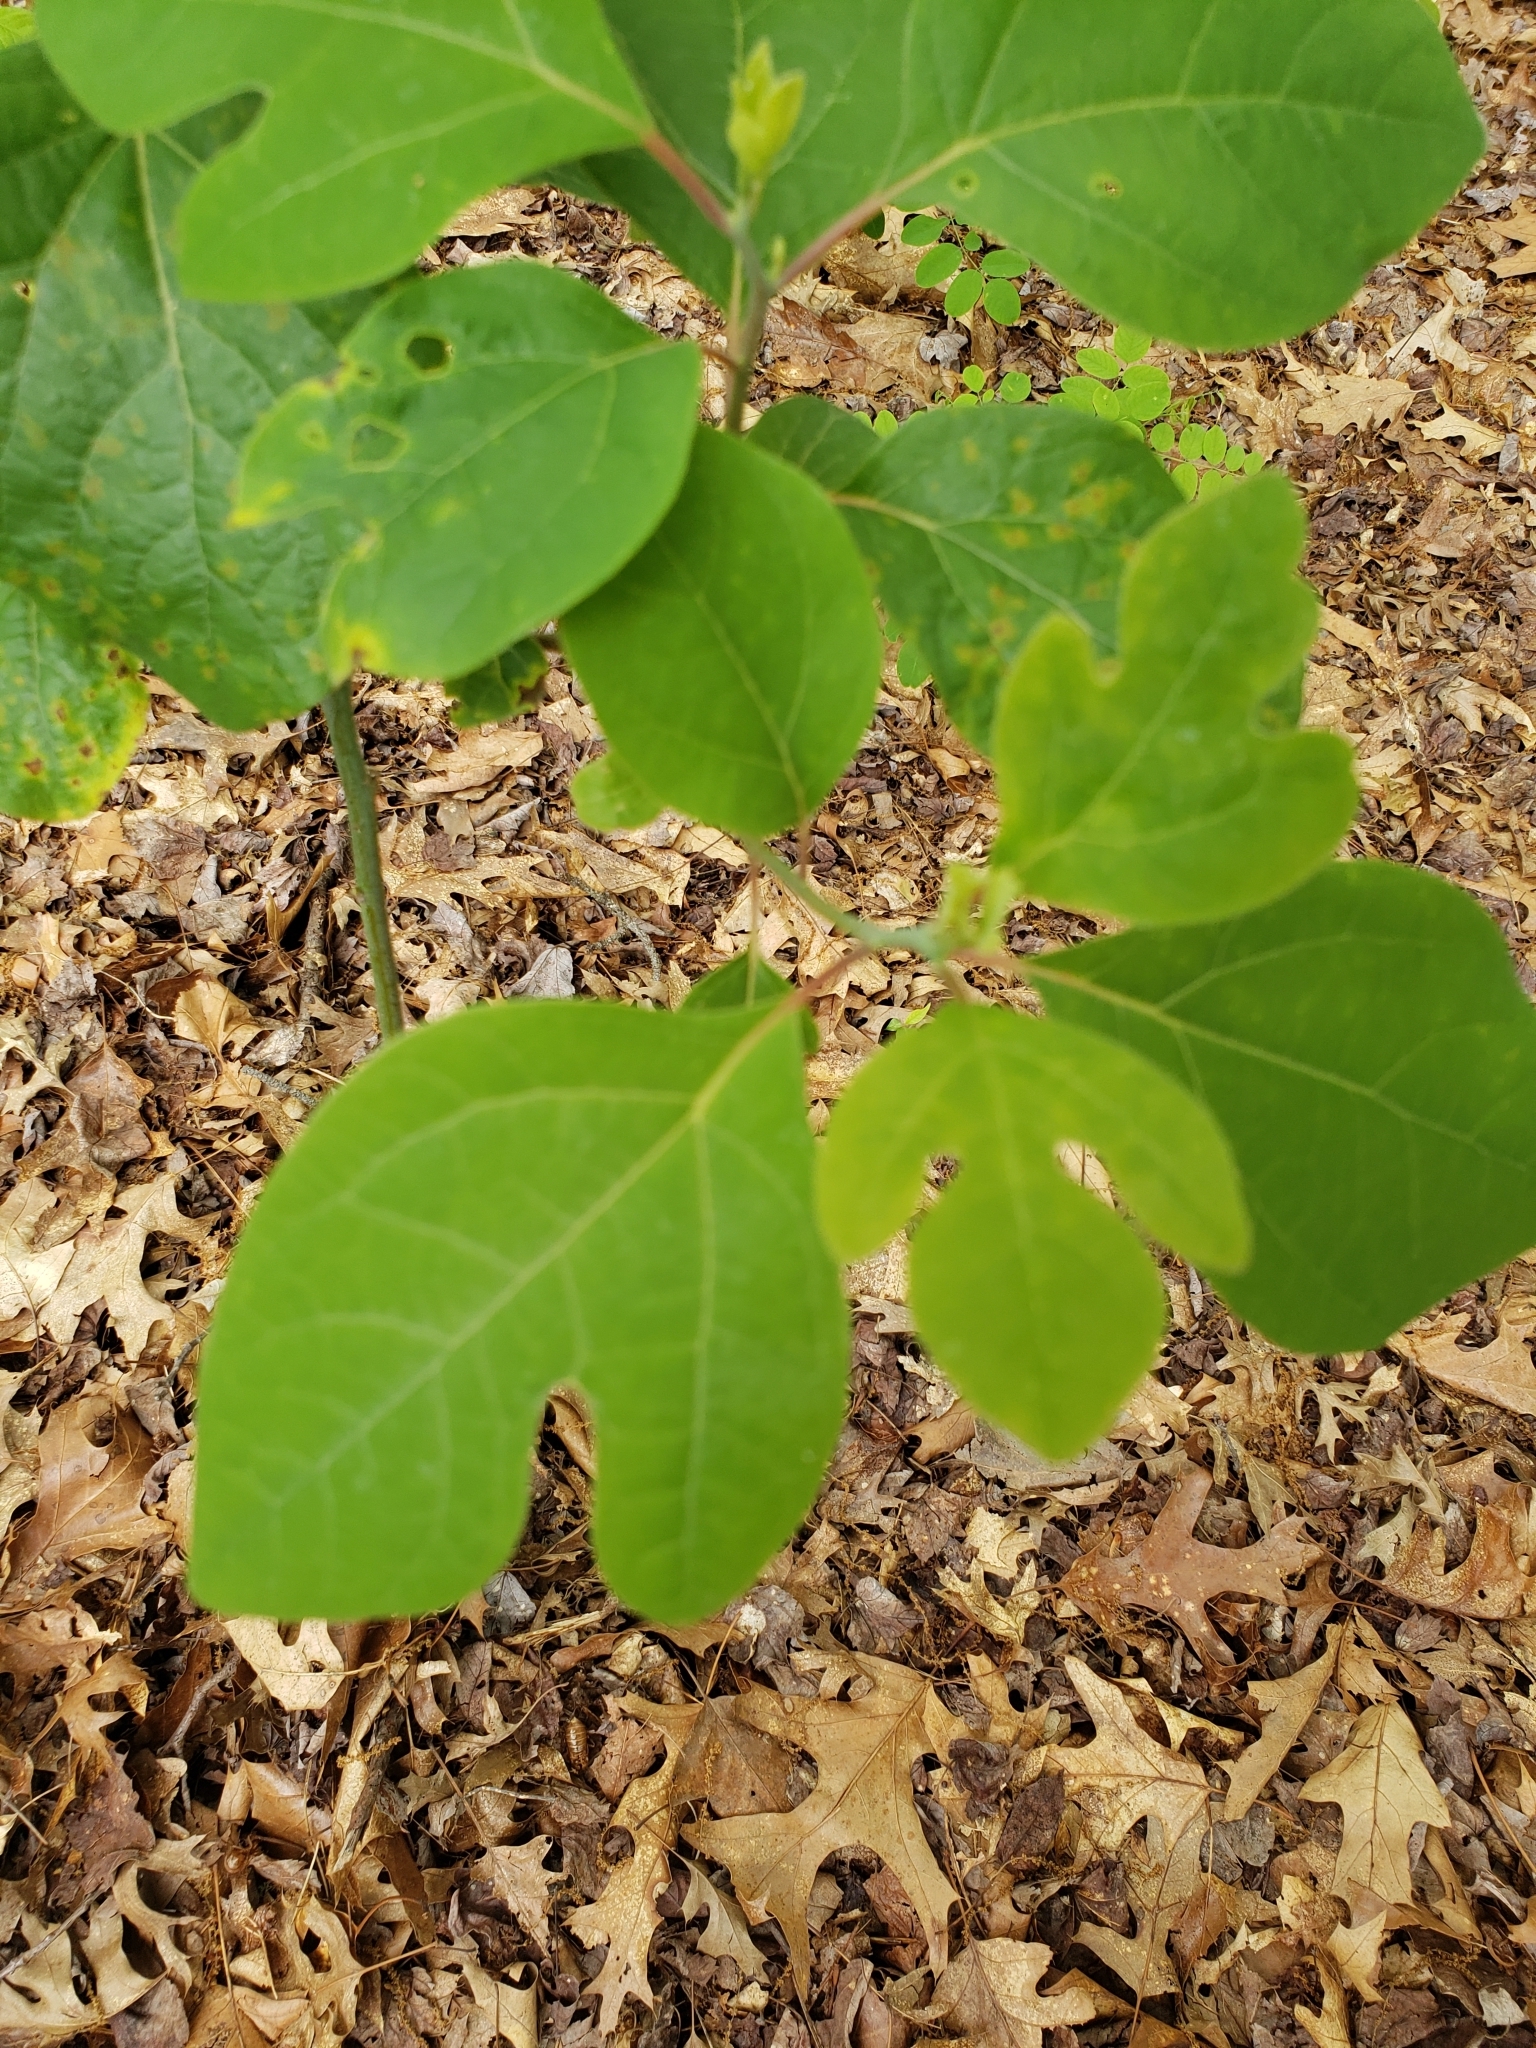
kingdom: Plantae
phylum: Tracheophyta
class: Magnoliopsida
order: Laurales
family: Lauraceae
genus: Sassafras
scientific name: Sassafras albidum
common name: Sassafras
